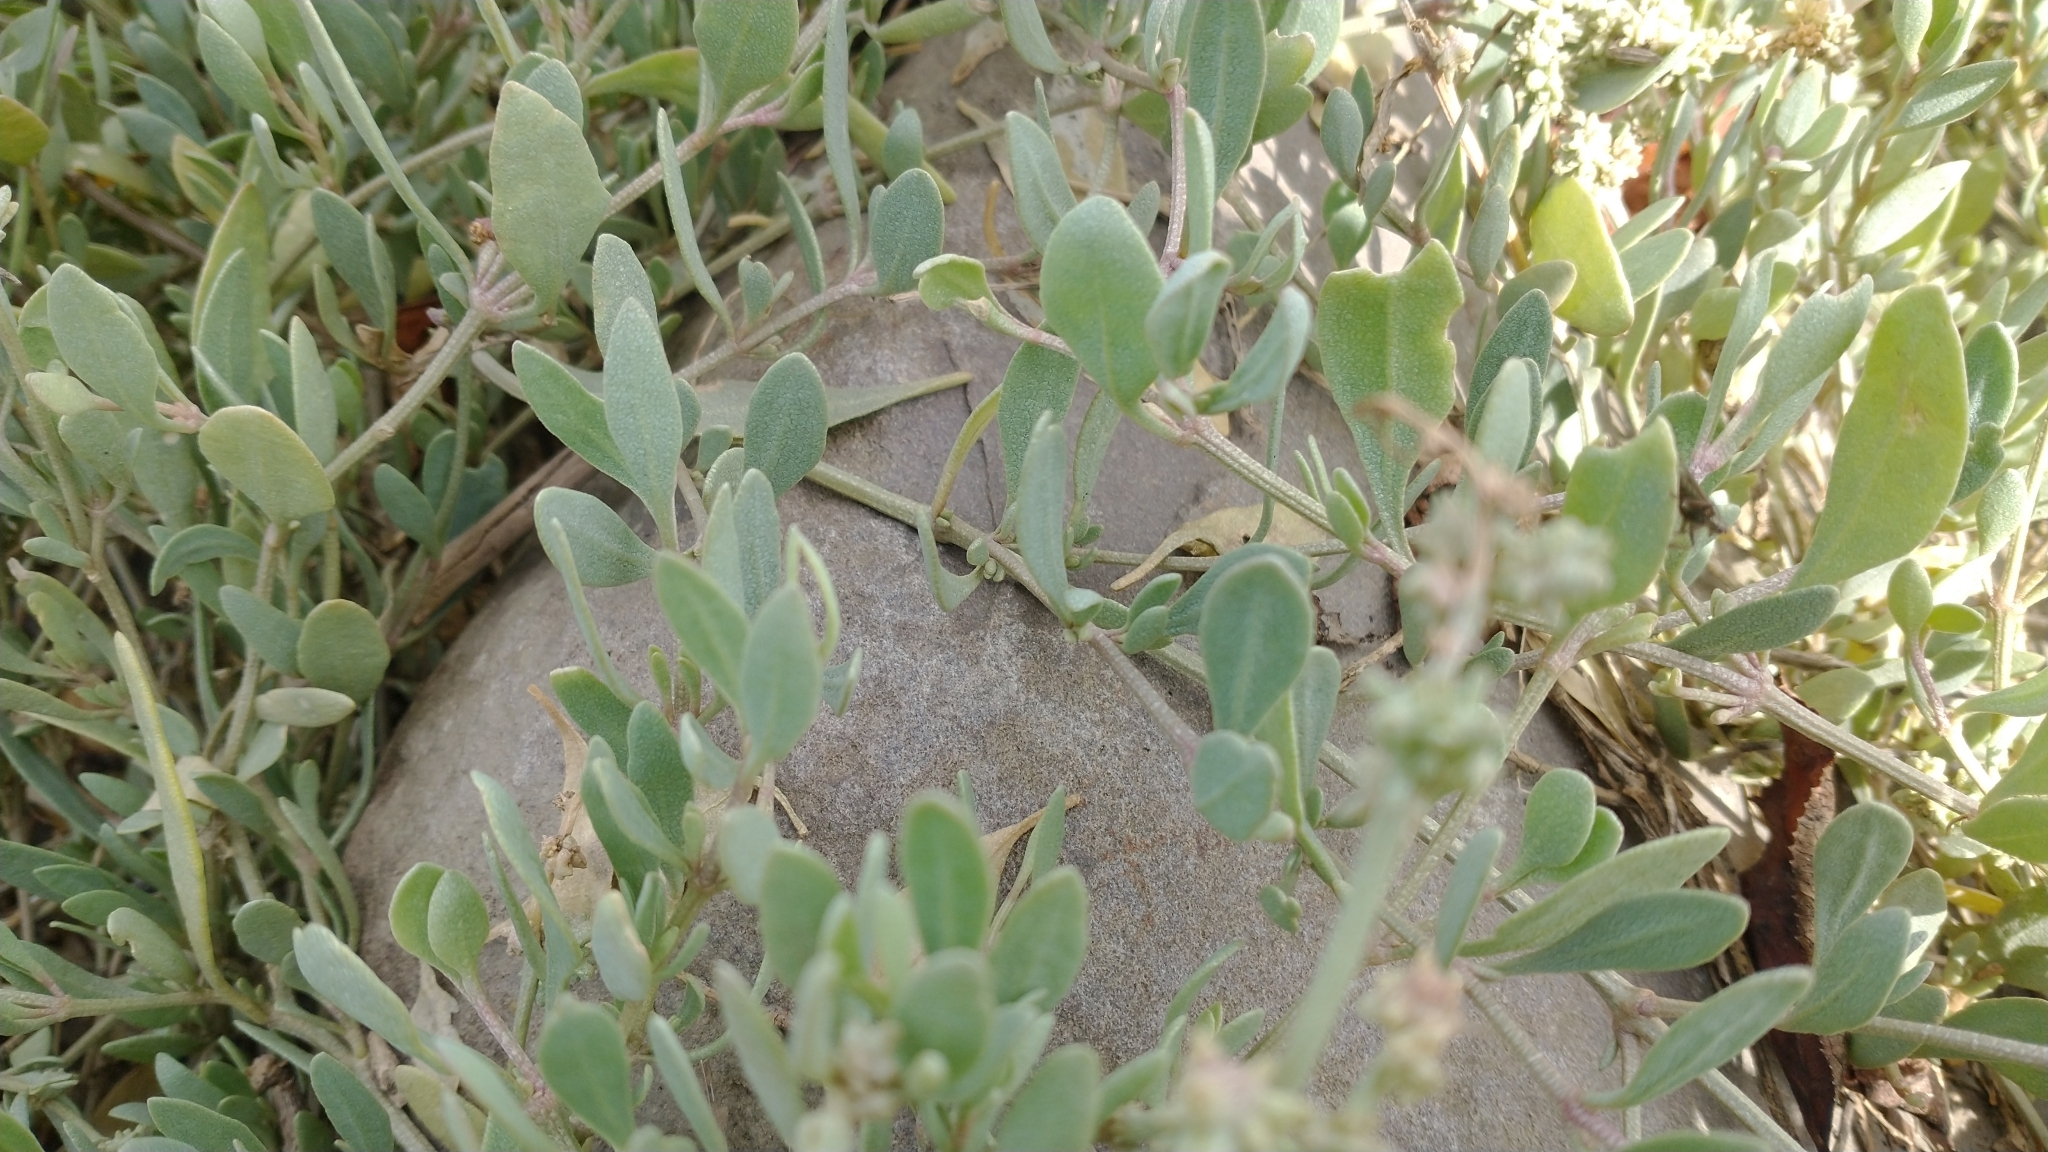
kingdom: Plantae
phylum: Tracheophyta
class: Magnoliopsida
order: Caryophyllales
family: Amaranthaceae
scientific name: Amaranthaceae
